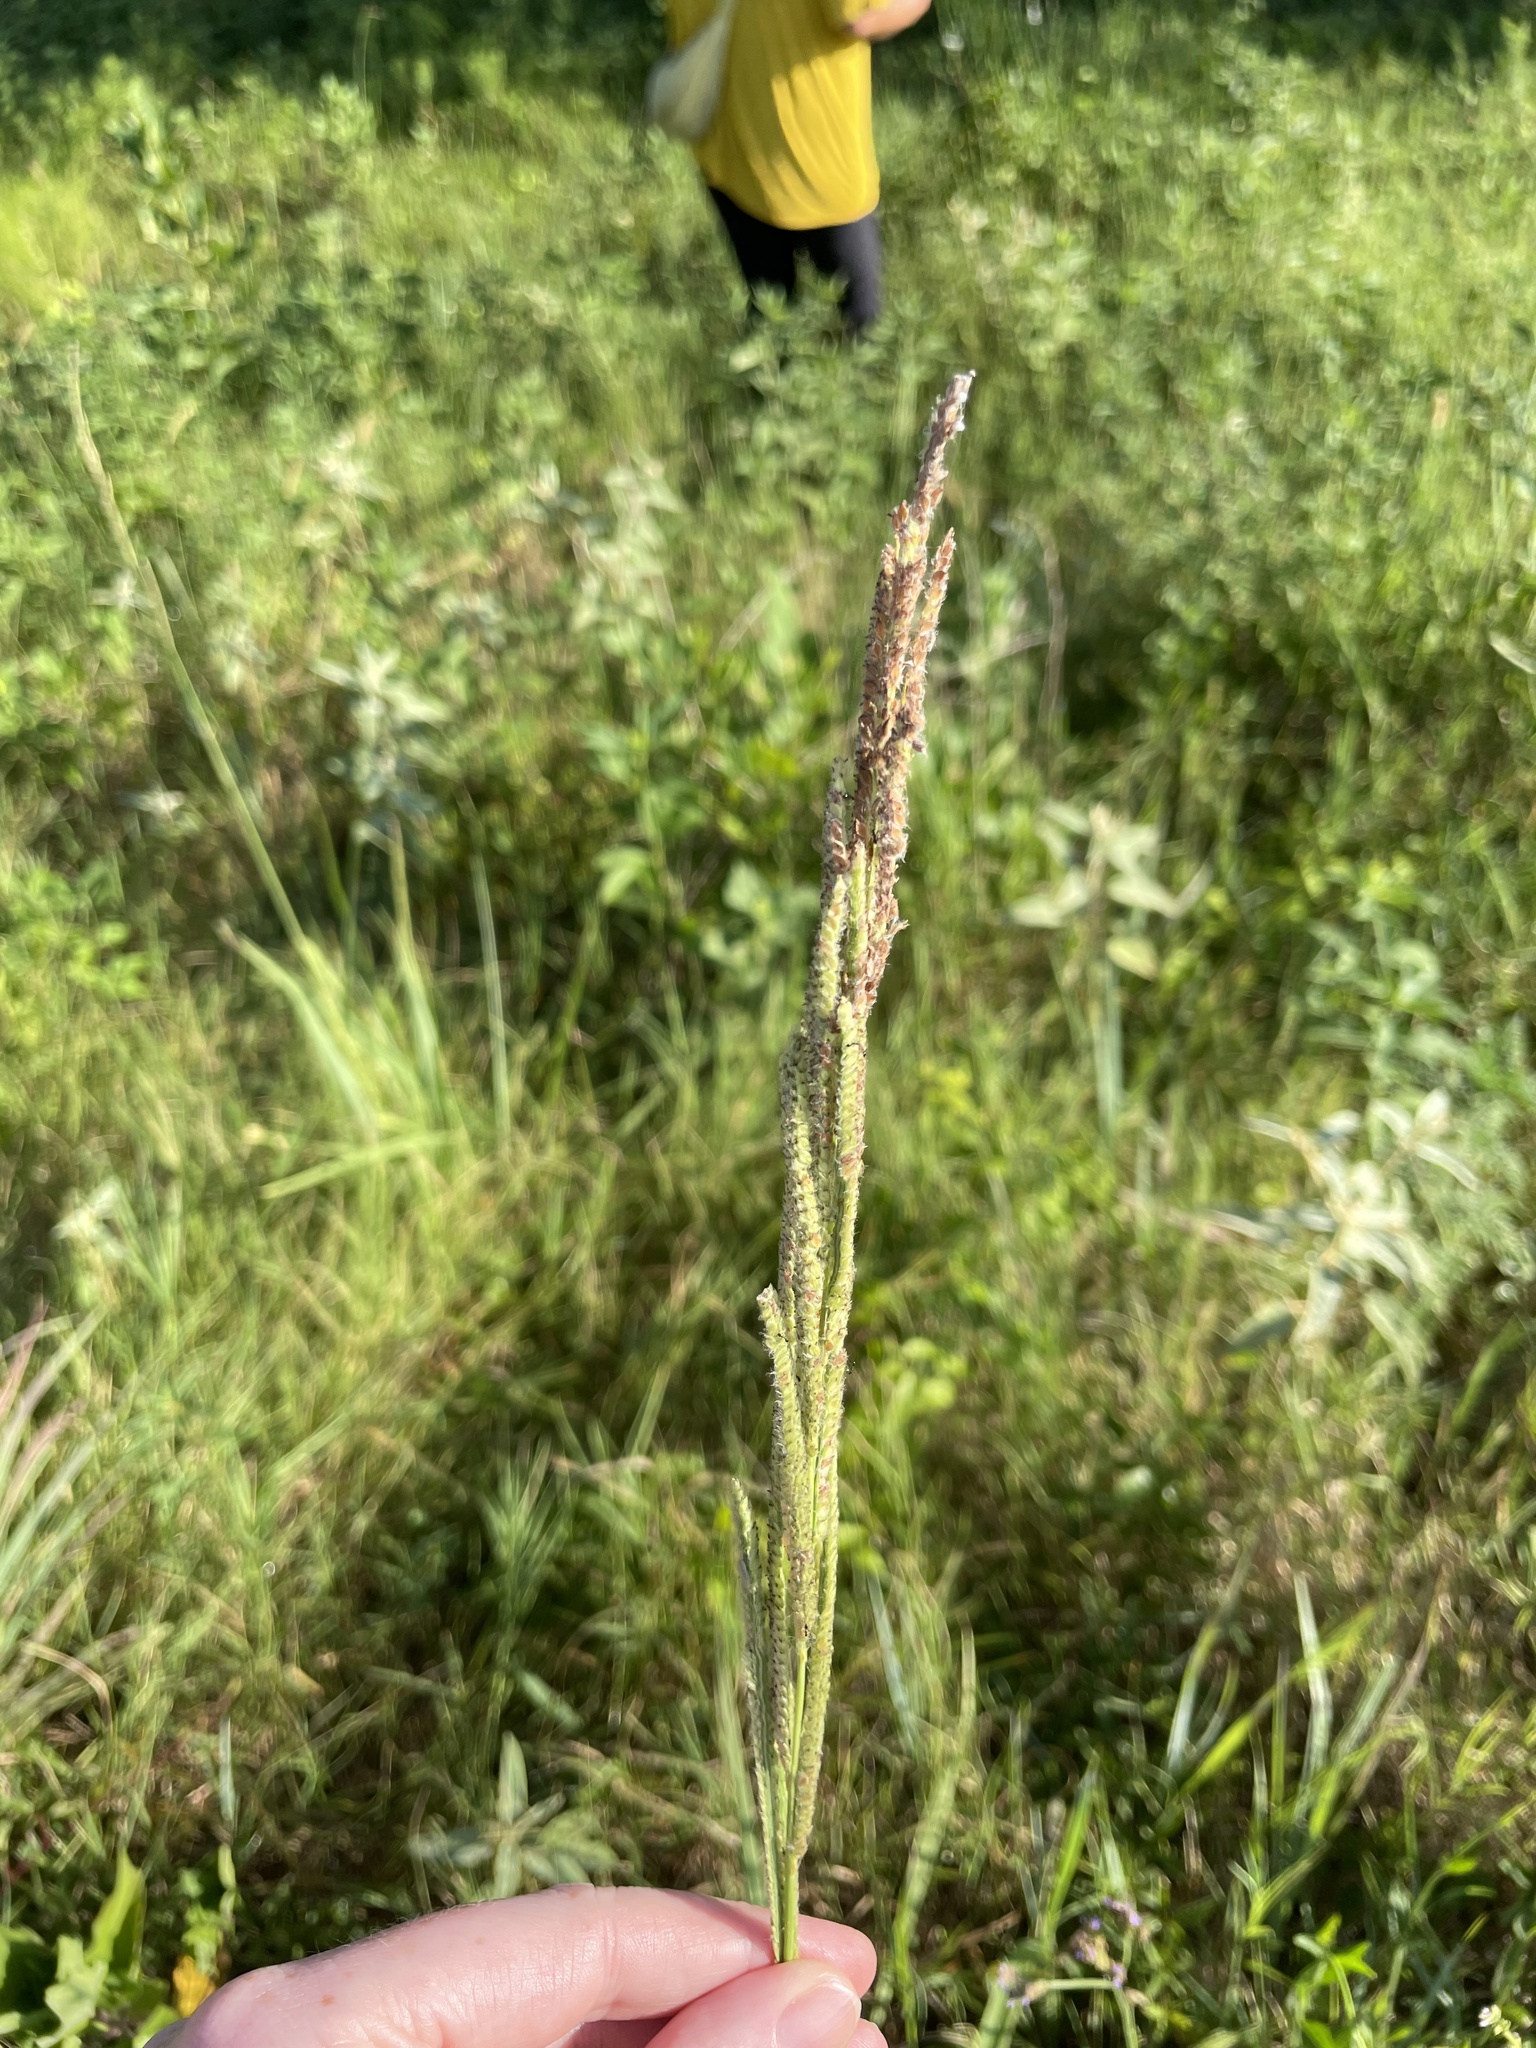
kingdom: Plantae
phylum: Tracheophyta
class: Liliopsida
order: Poales
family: Poaceae
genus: Paspalum
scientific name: Paspalum urvillei
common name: Vasey's grass
